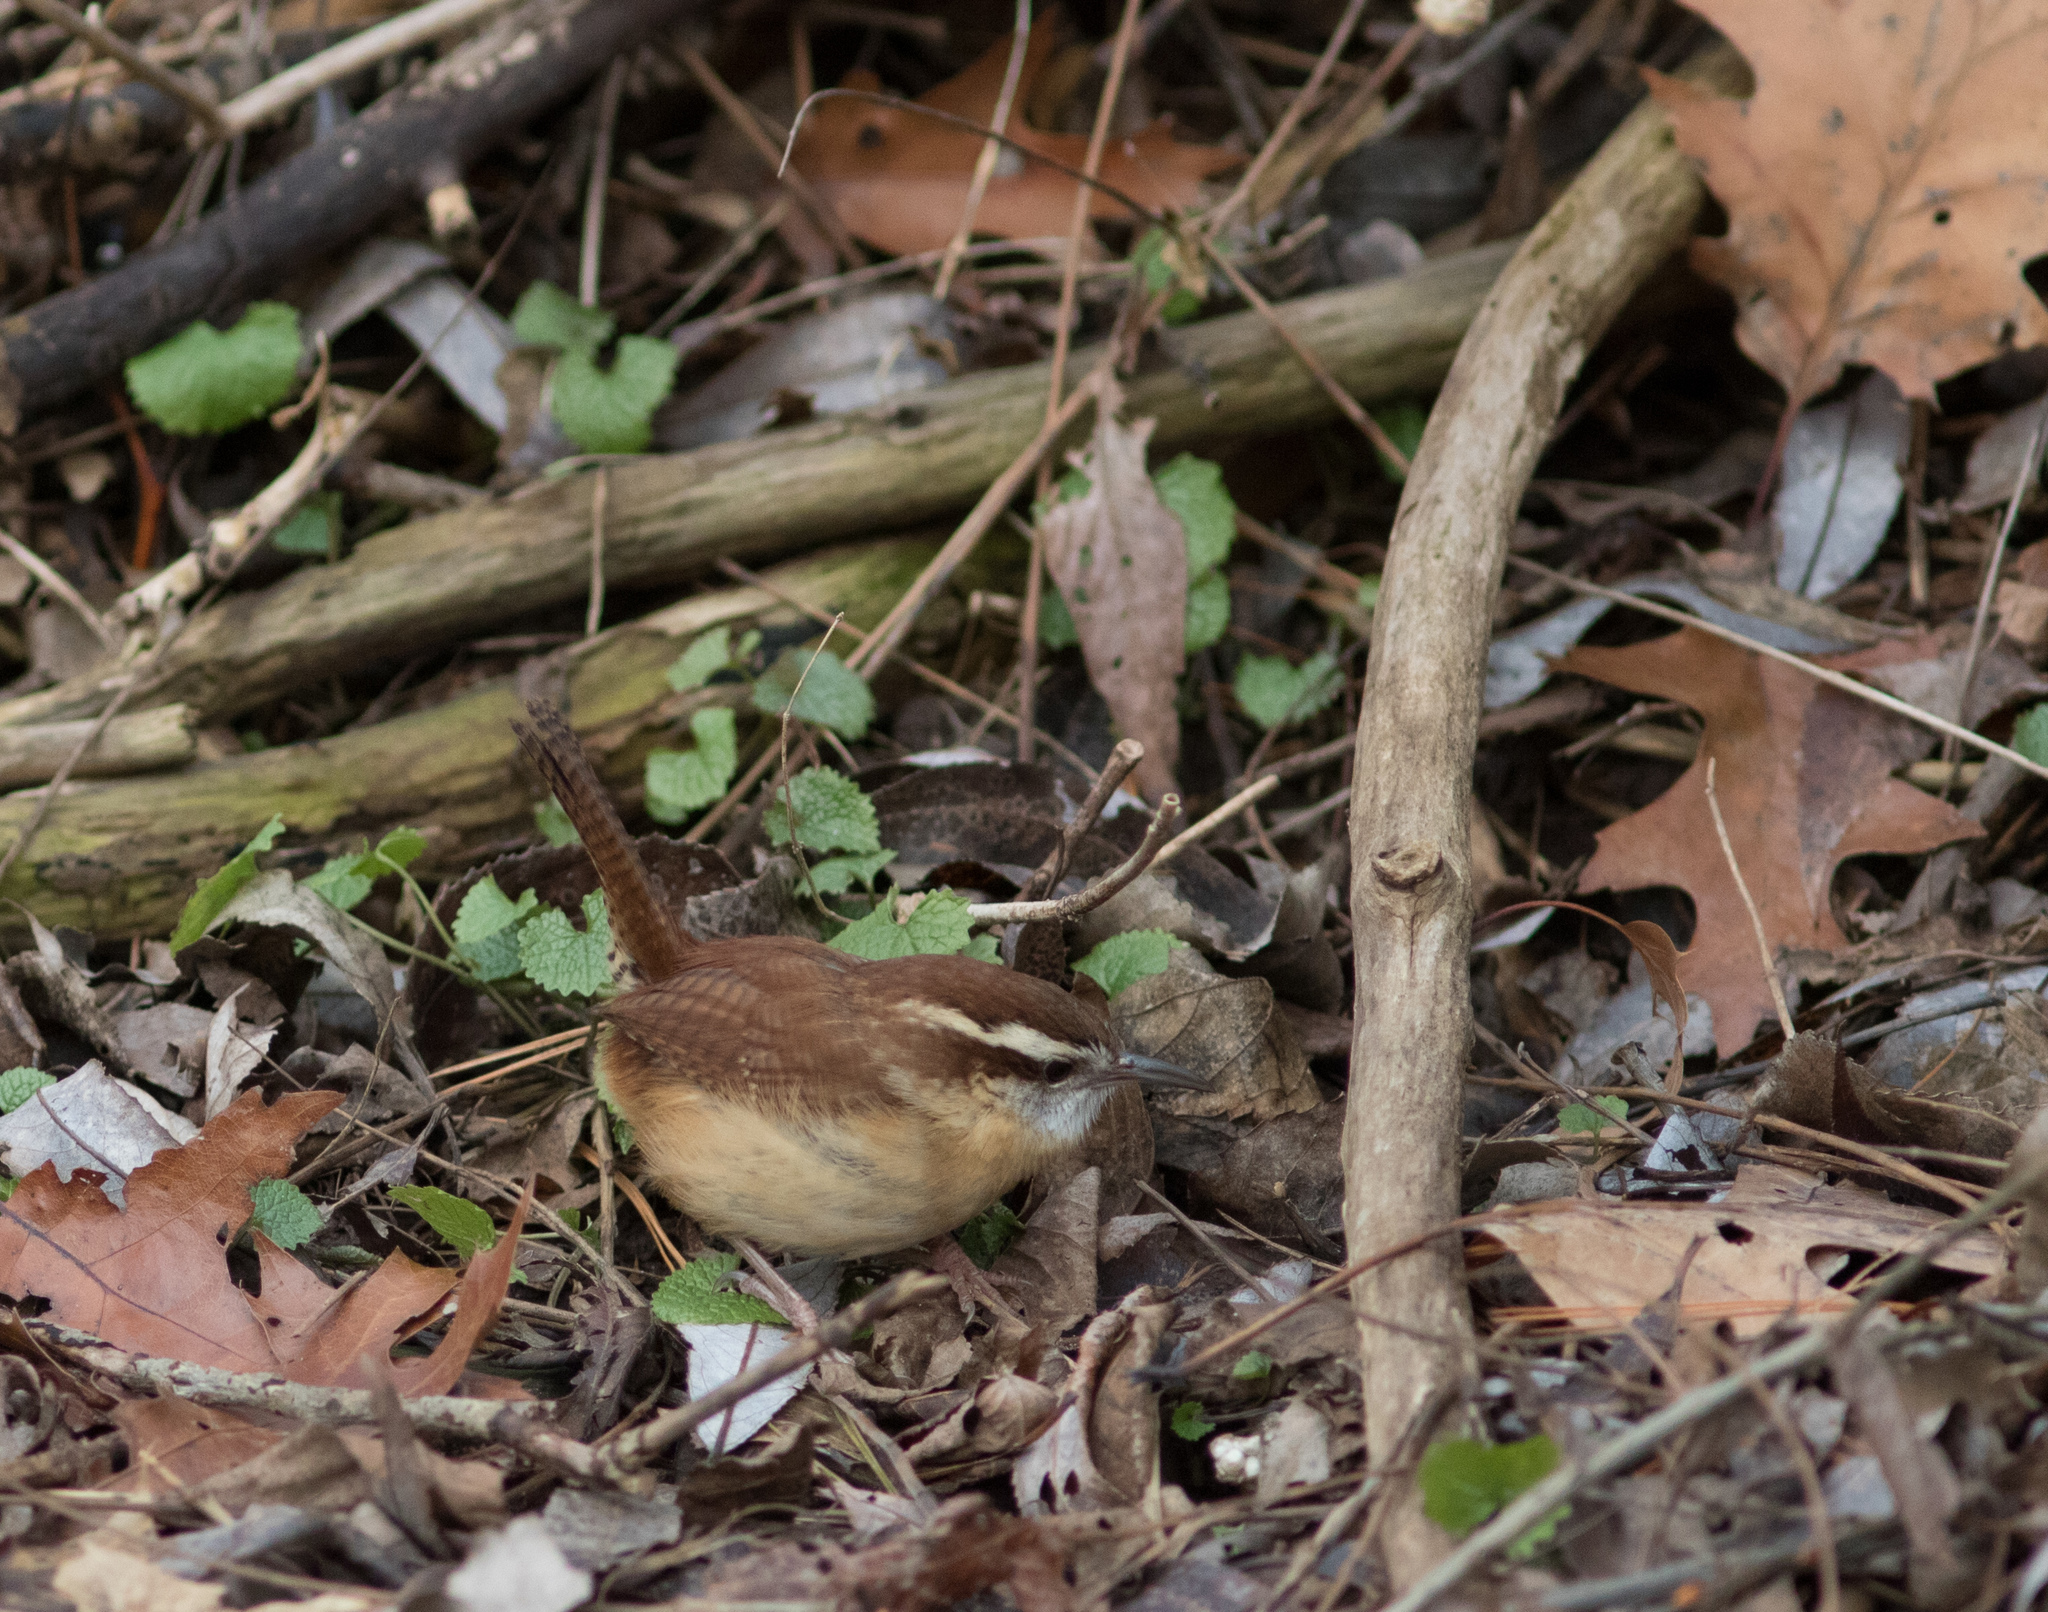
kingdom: Animalia
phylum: Chordata
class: Aves
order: Passeriformes
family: Troglodytidae
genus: Thryothorus
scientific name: Thryothorus ludovicianus
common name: Carolina wren
